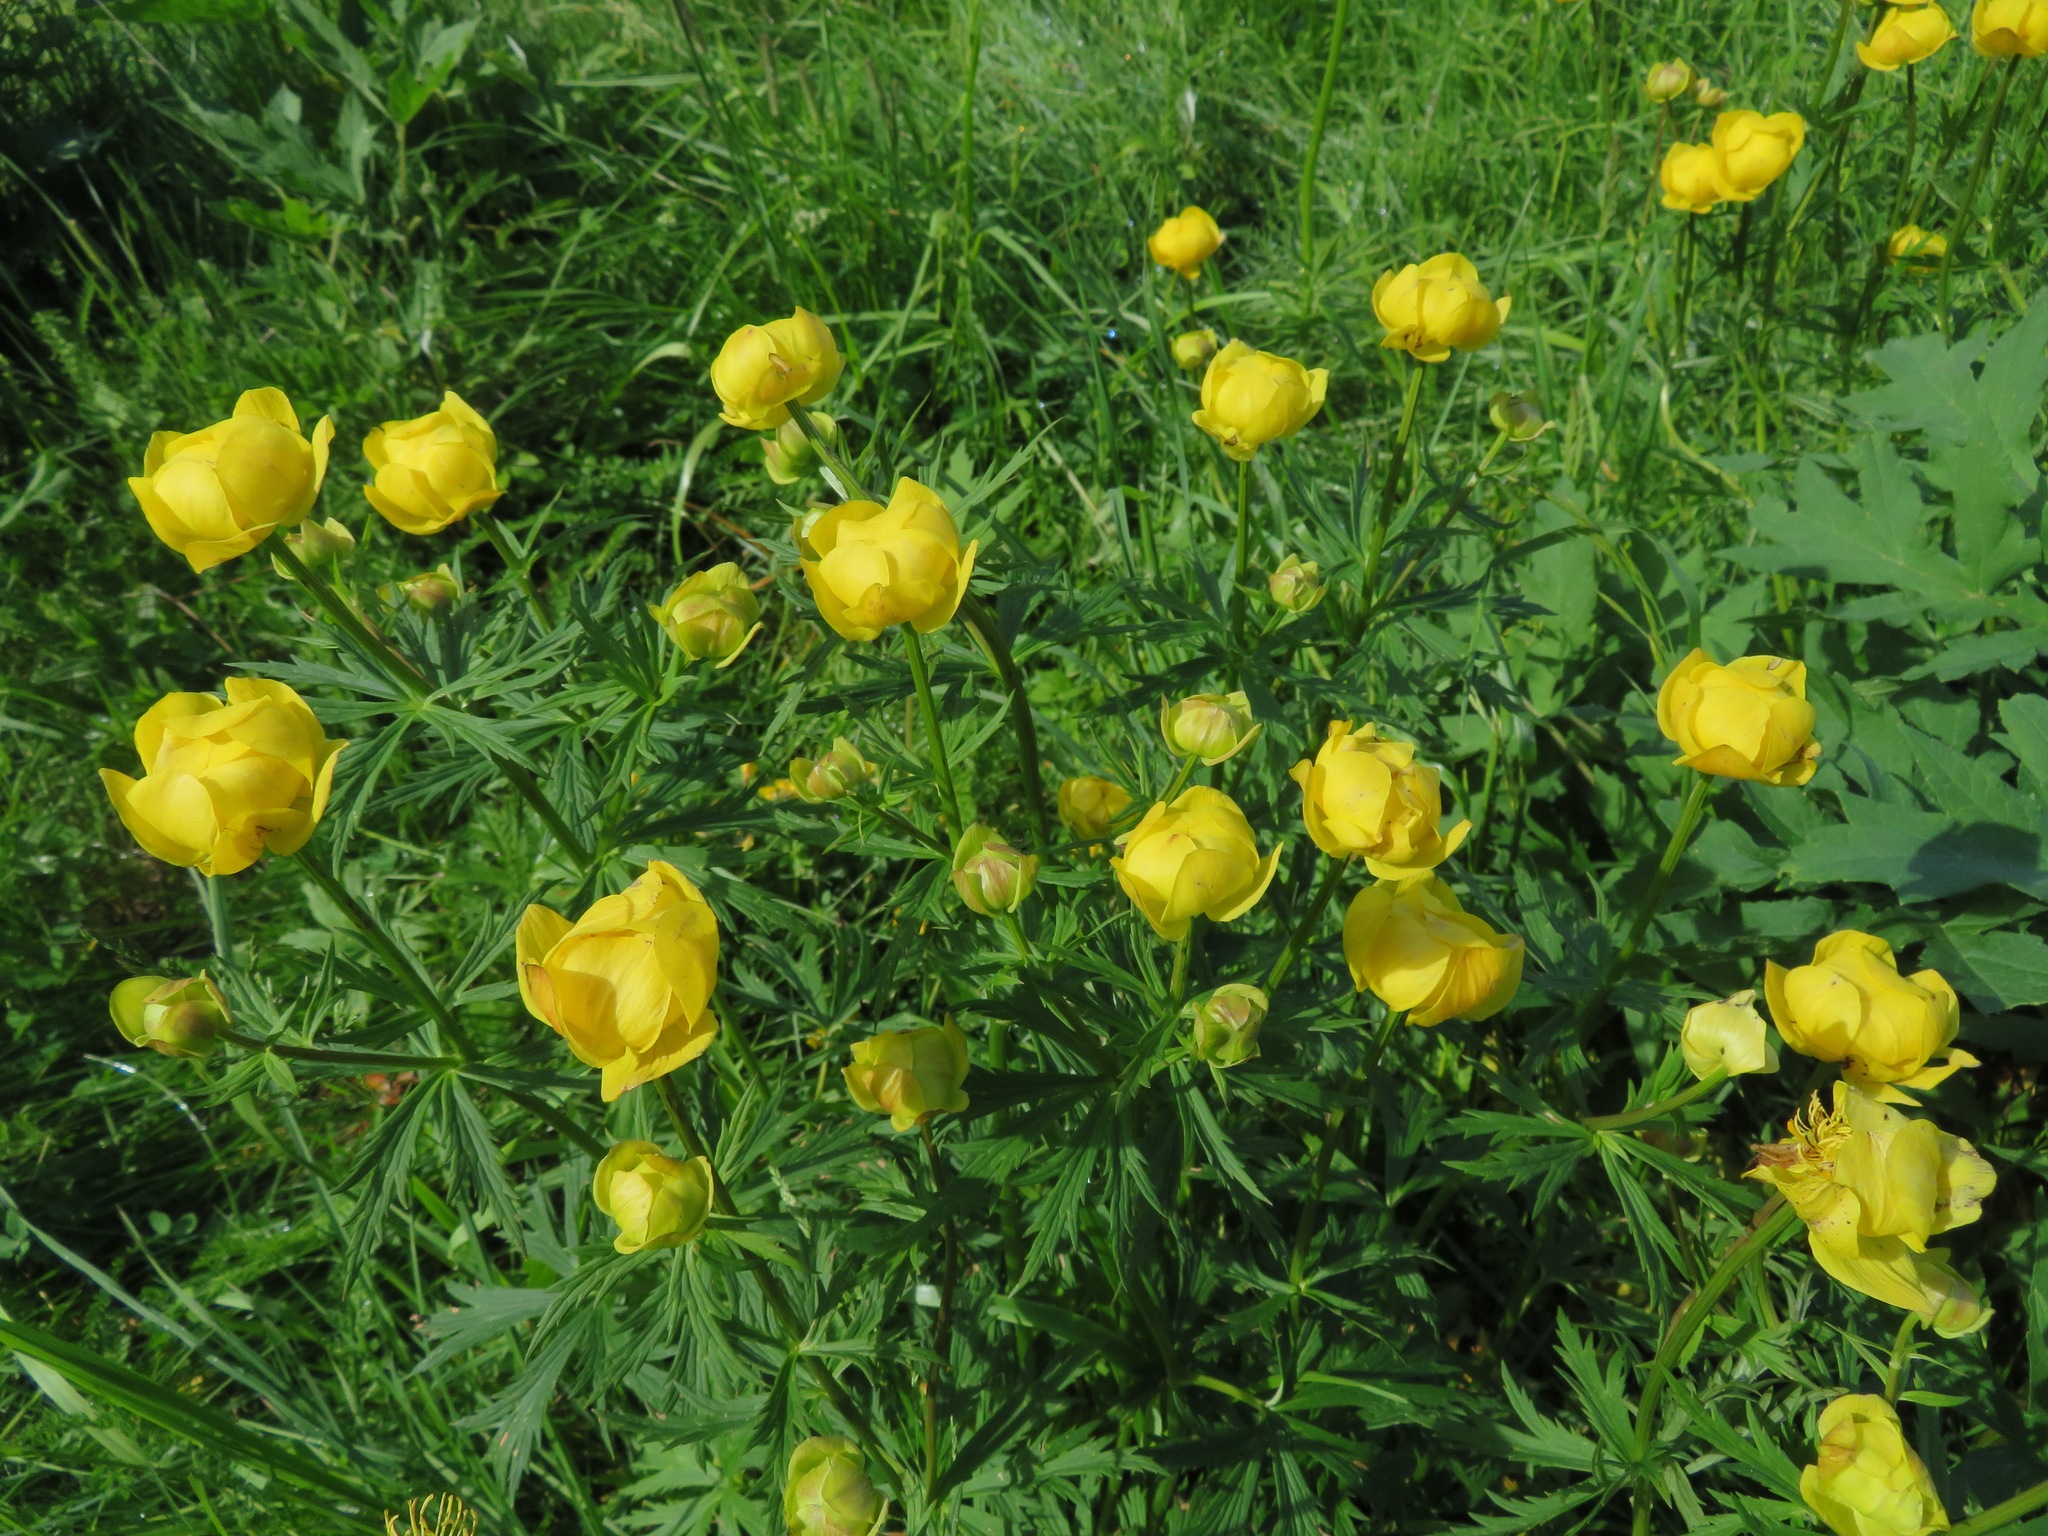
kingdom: Plantae
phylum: Tracheophyta
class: Magnoliopsida
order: Ranunculales
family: Ranunculaceae
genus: Trollius
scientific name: Trollius europaeus
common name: European globeflower
